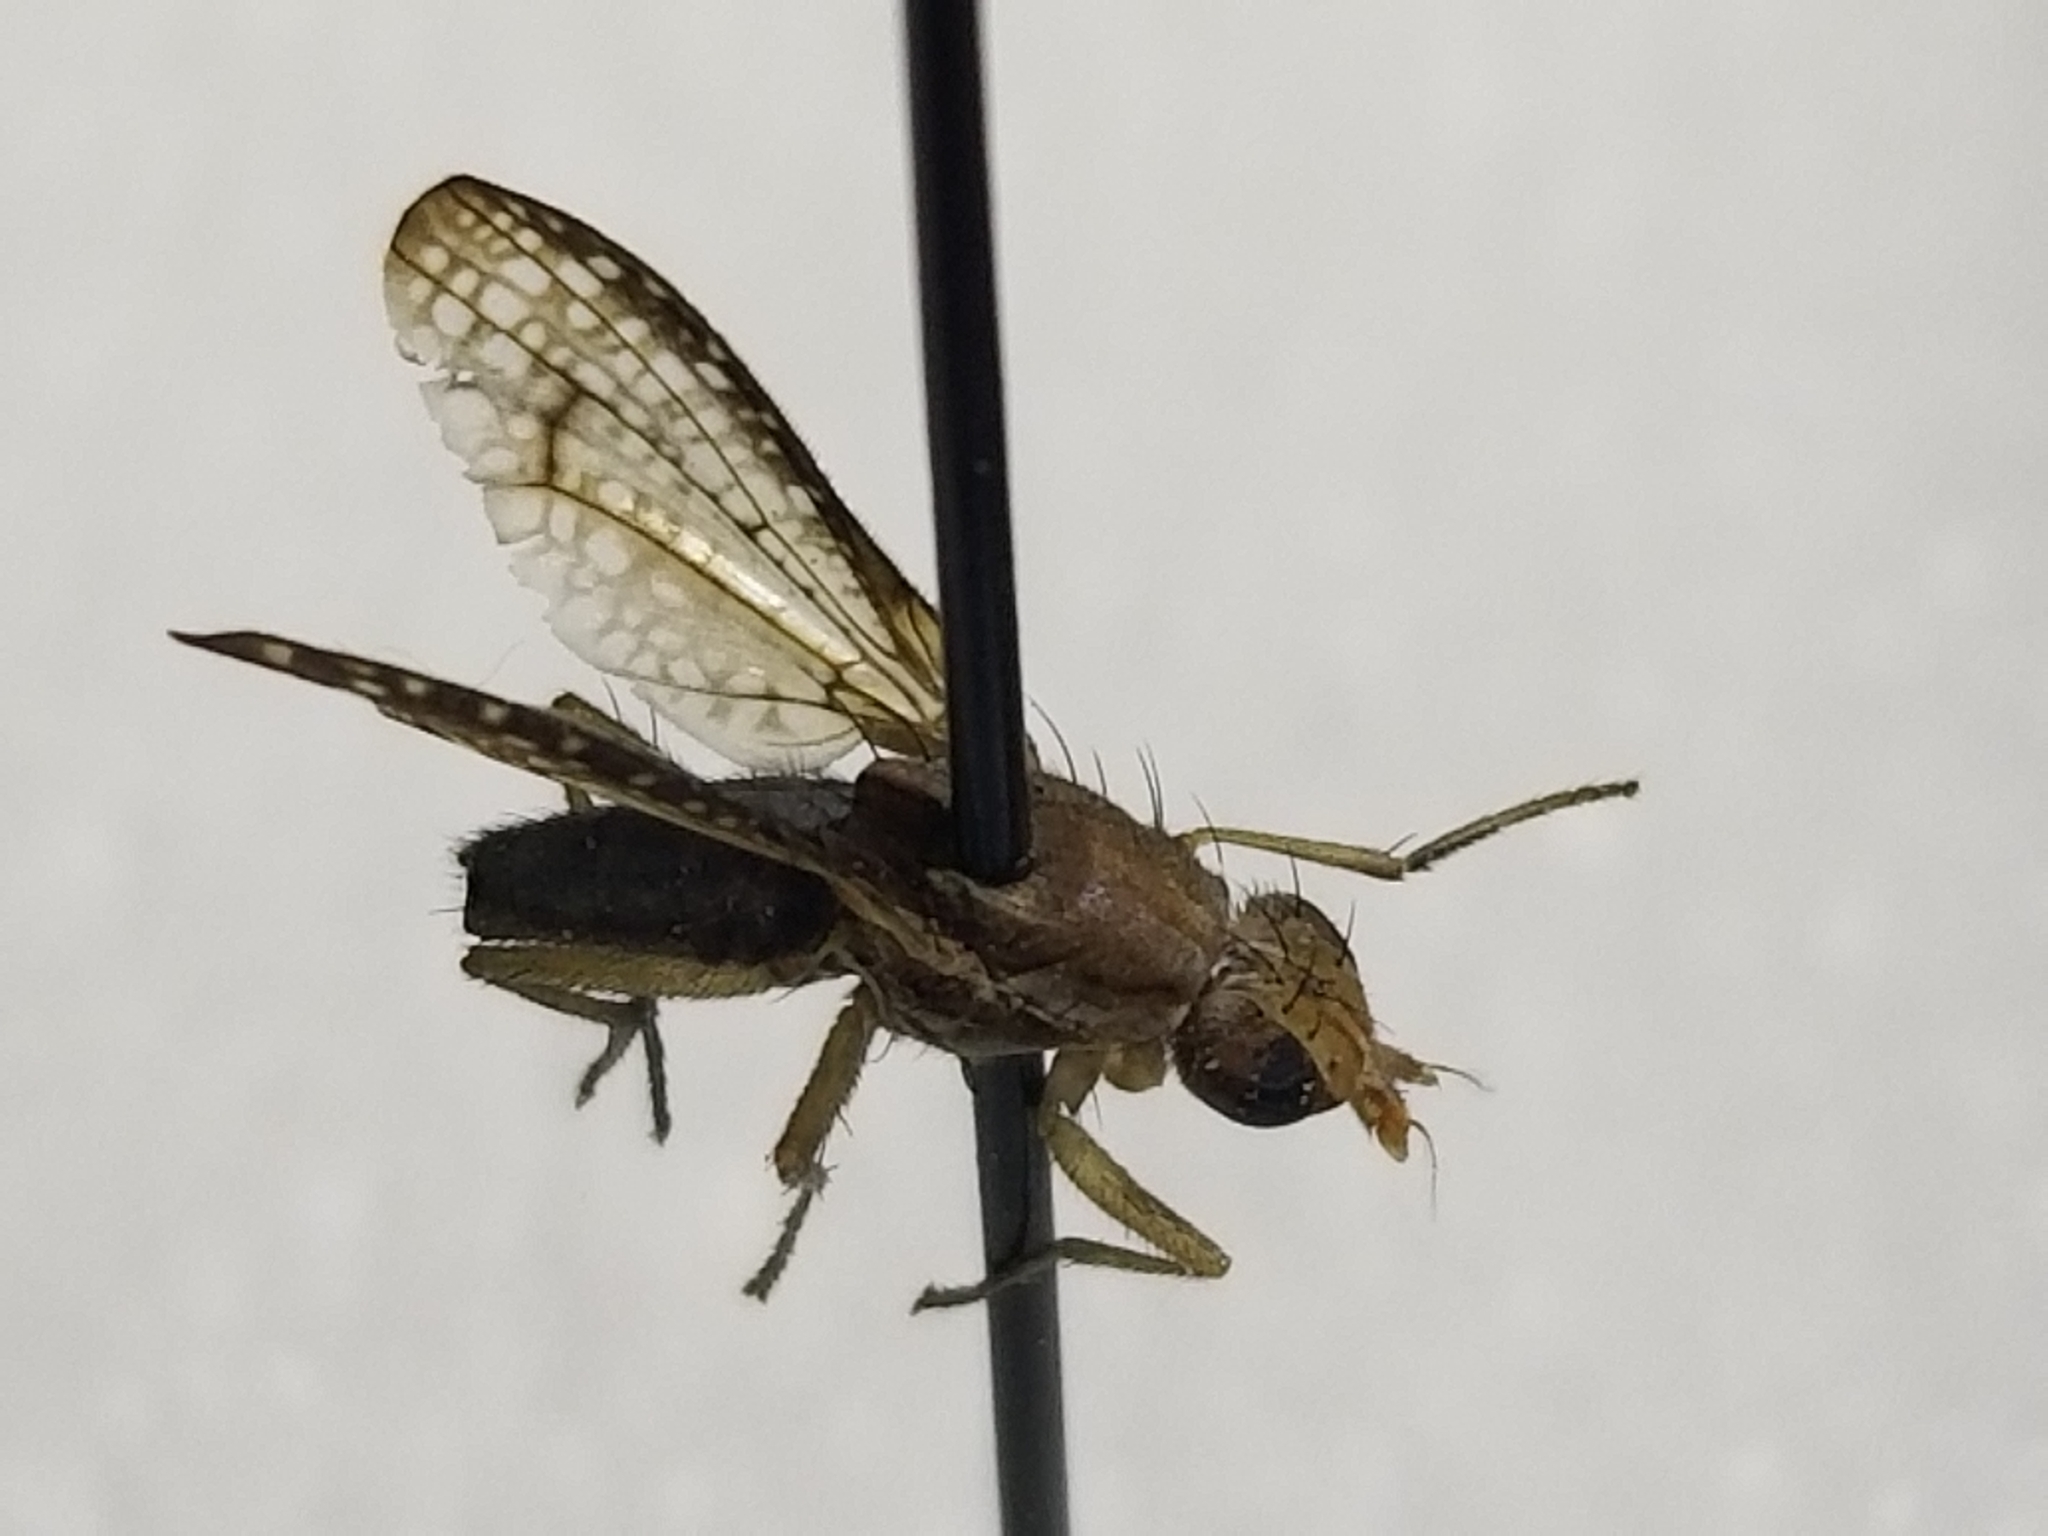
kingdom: Animalia
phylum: Arthropoda
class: Insecta
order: Diptera
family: Sciomyzidae
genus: Trypetoptera
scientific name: Trypetoptera canadensis
